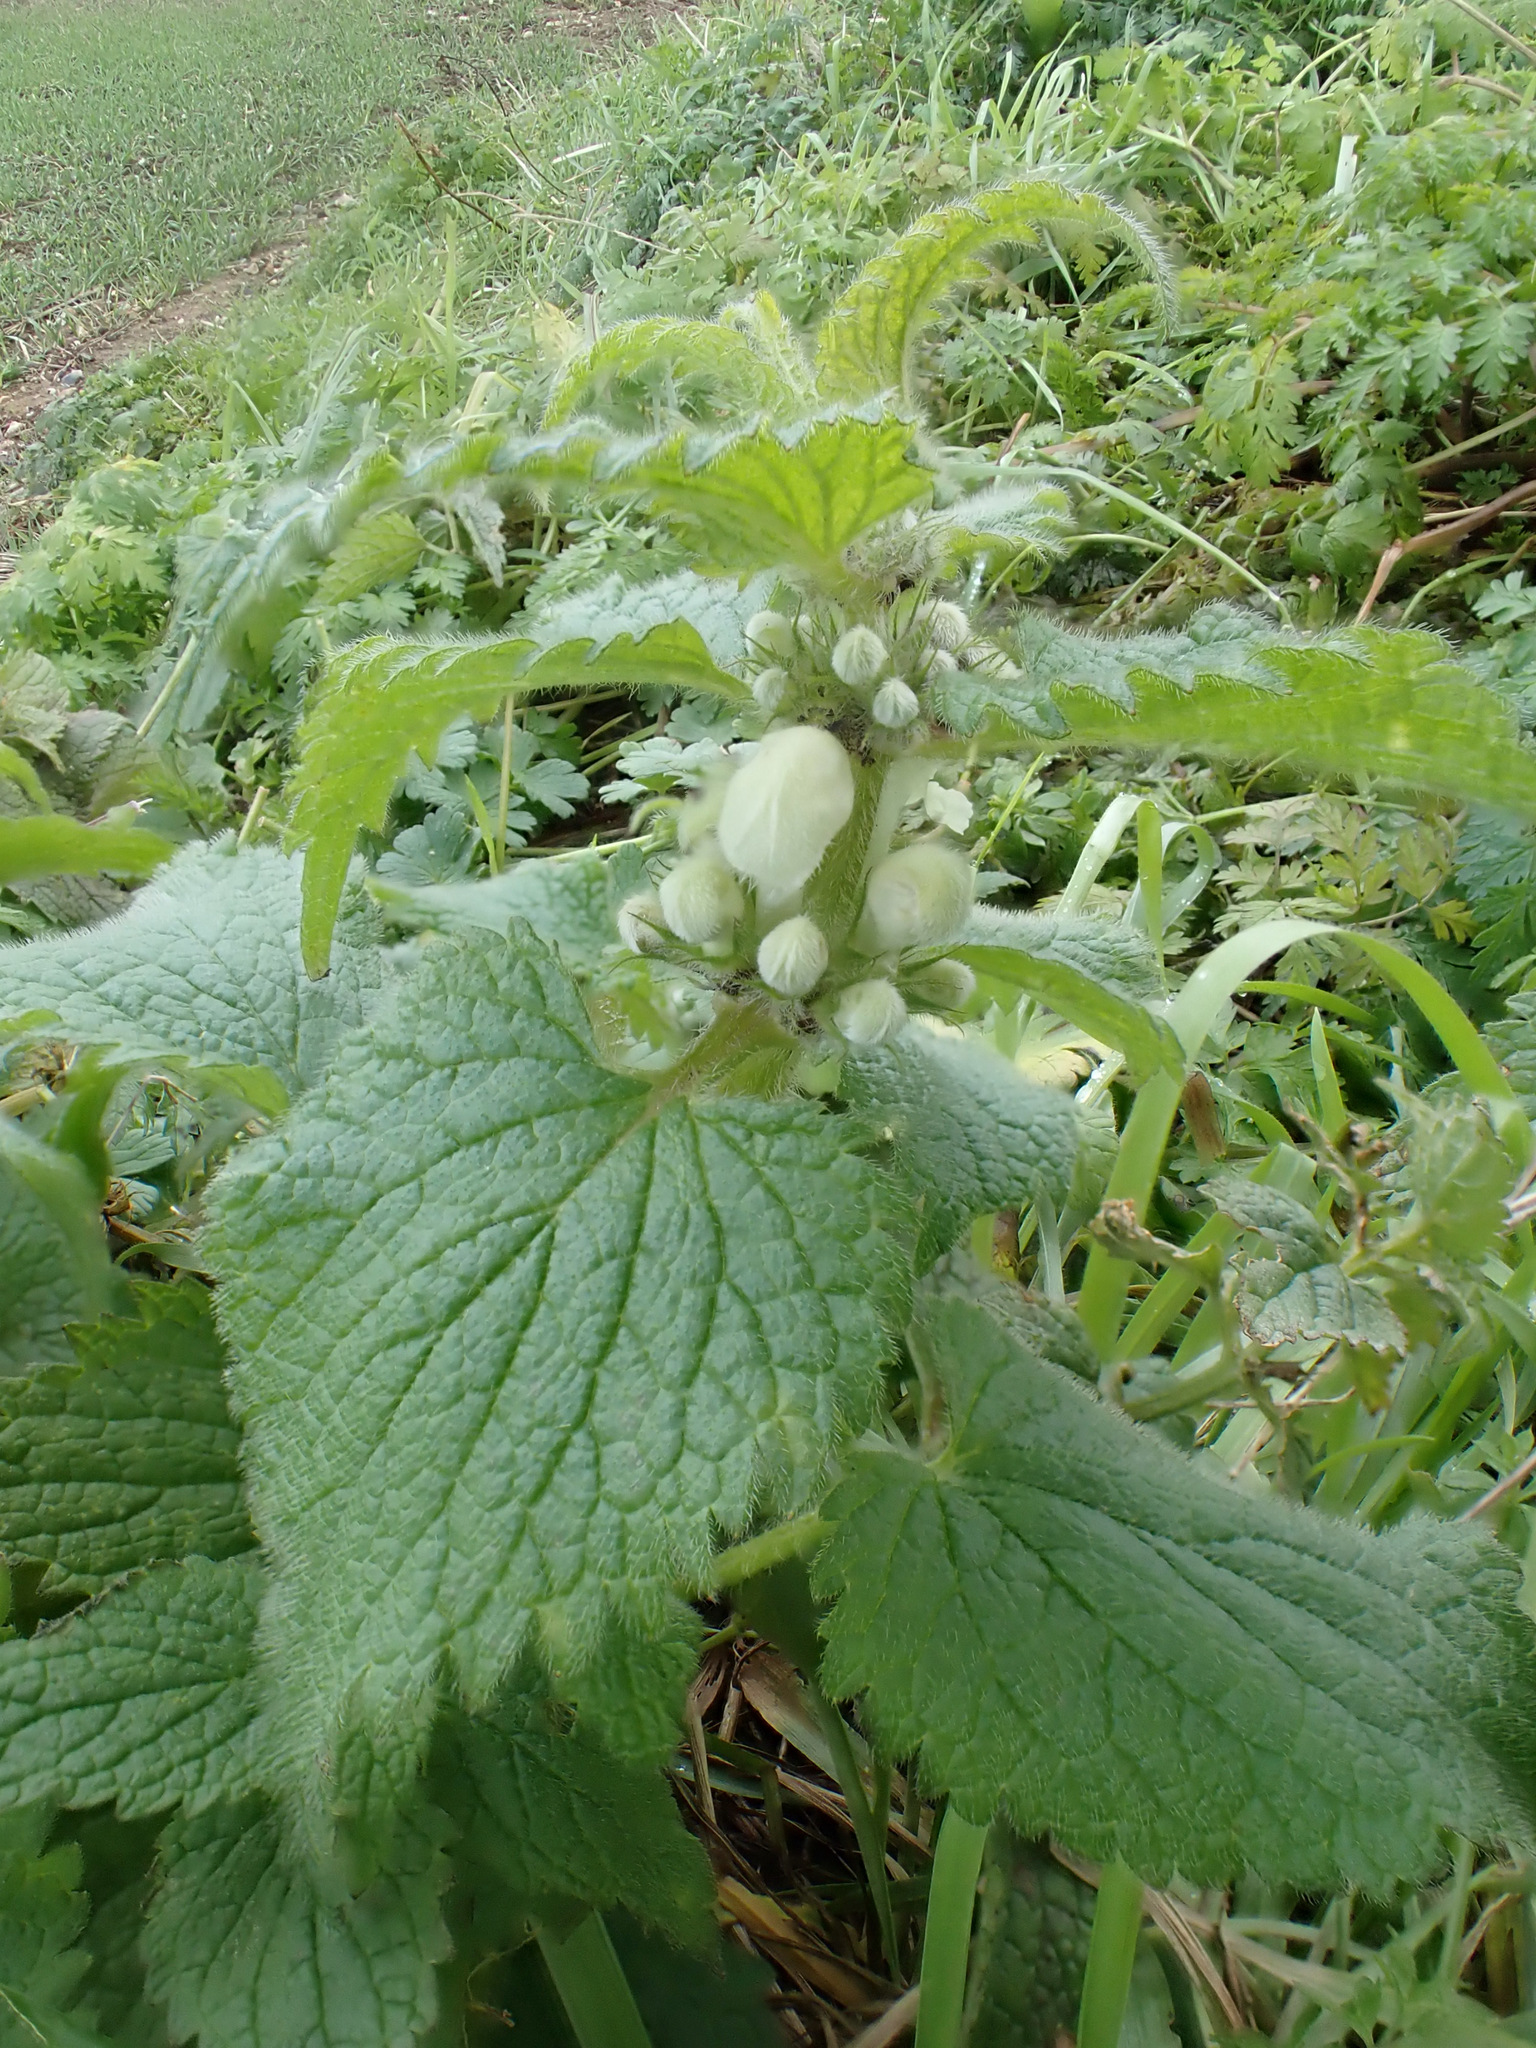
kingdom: Plantae
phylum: Tracheophyta
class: Magnoliopsida
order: Lamiales
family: Lamiaceae
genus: Lamium
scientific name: Lamium album
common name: White dead-nettle
